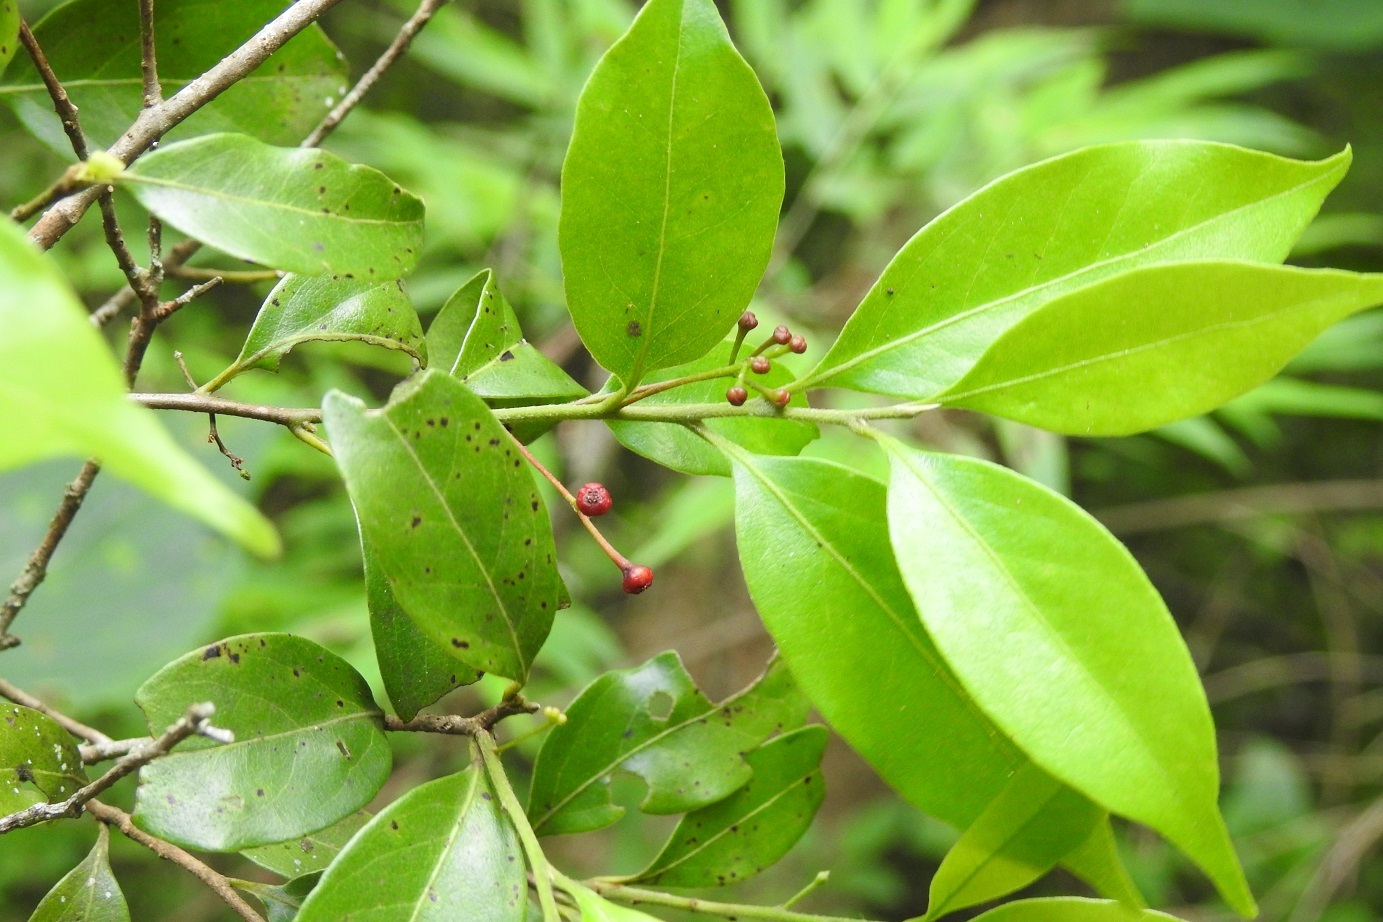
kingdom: Plantae
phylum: Tracheophyta
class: Magnoliopsida
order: Laurales
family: Lauraceae
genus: Licaria
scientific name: Licaria misantlae
